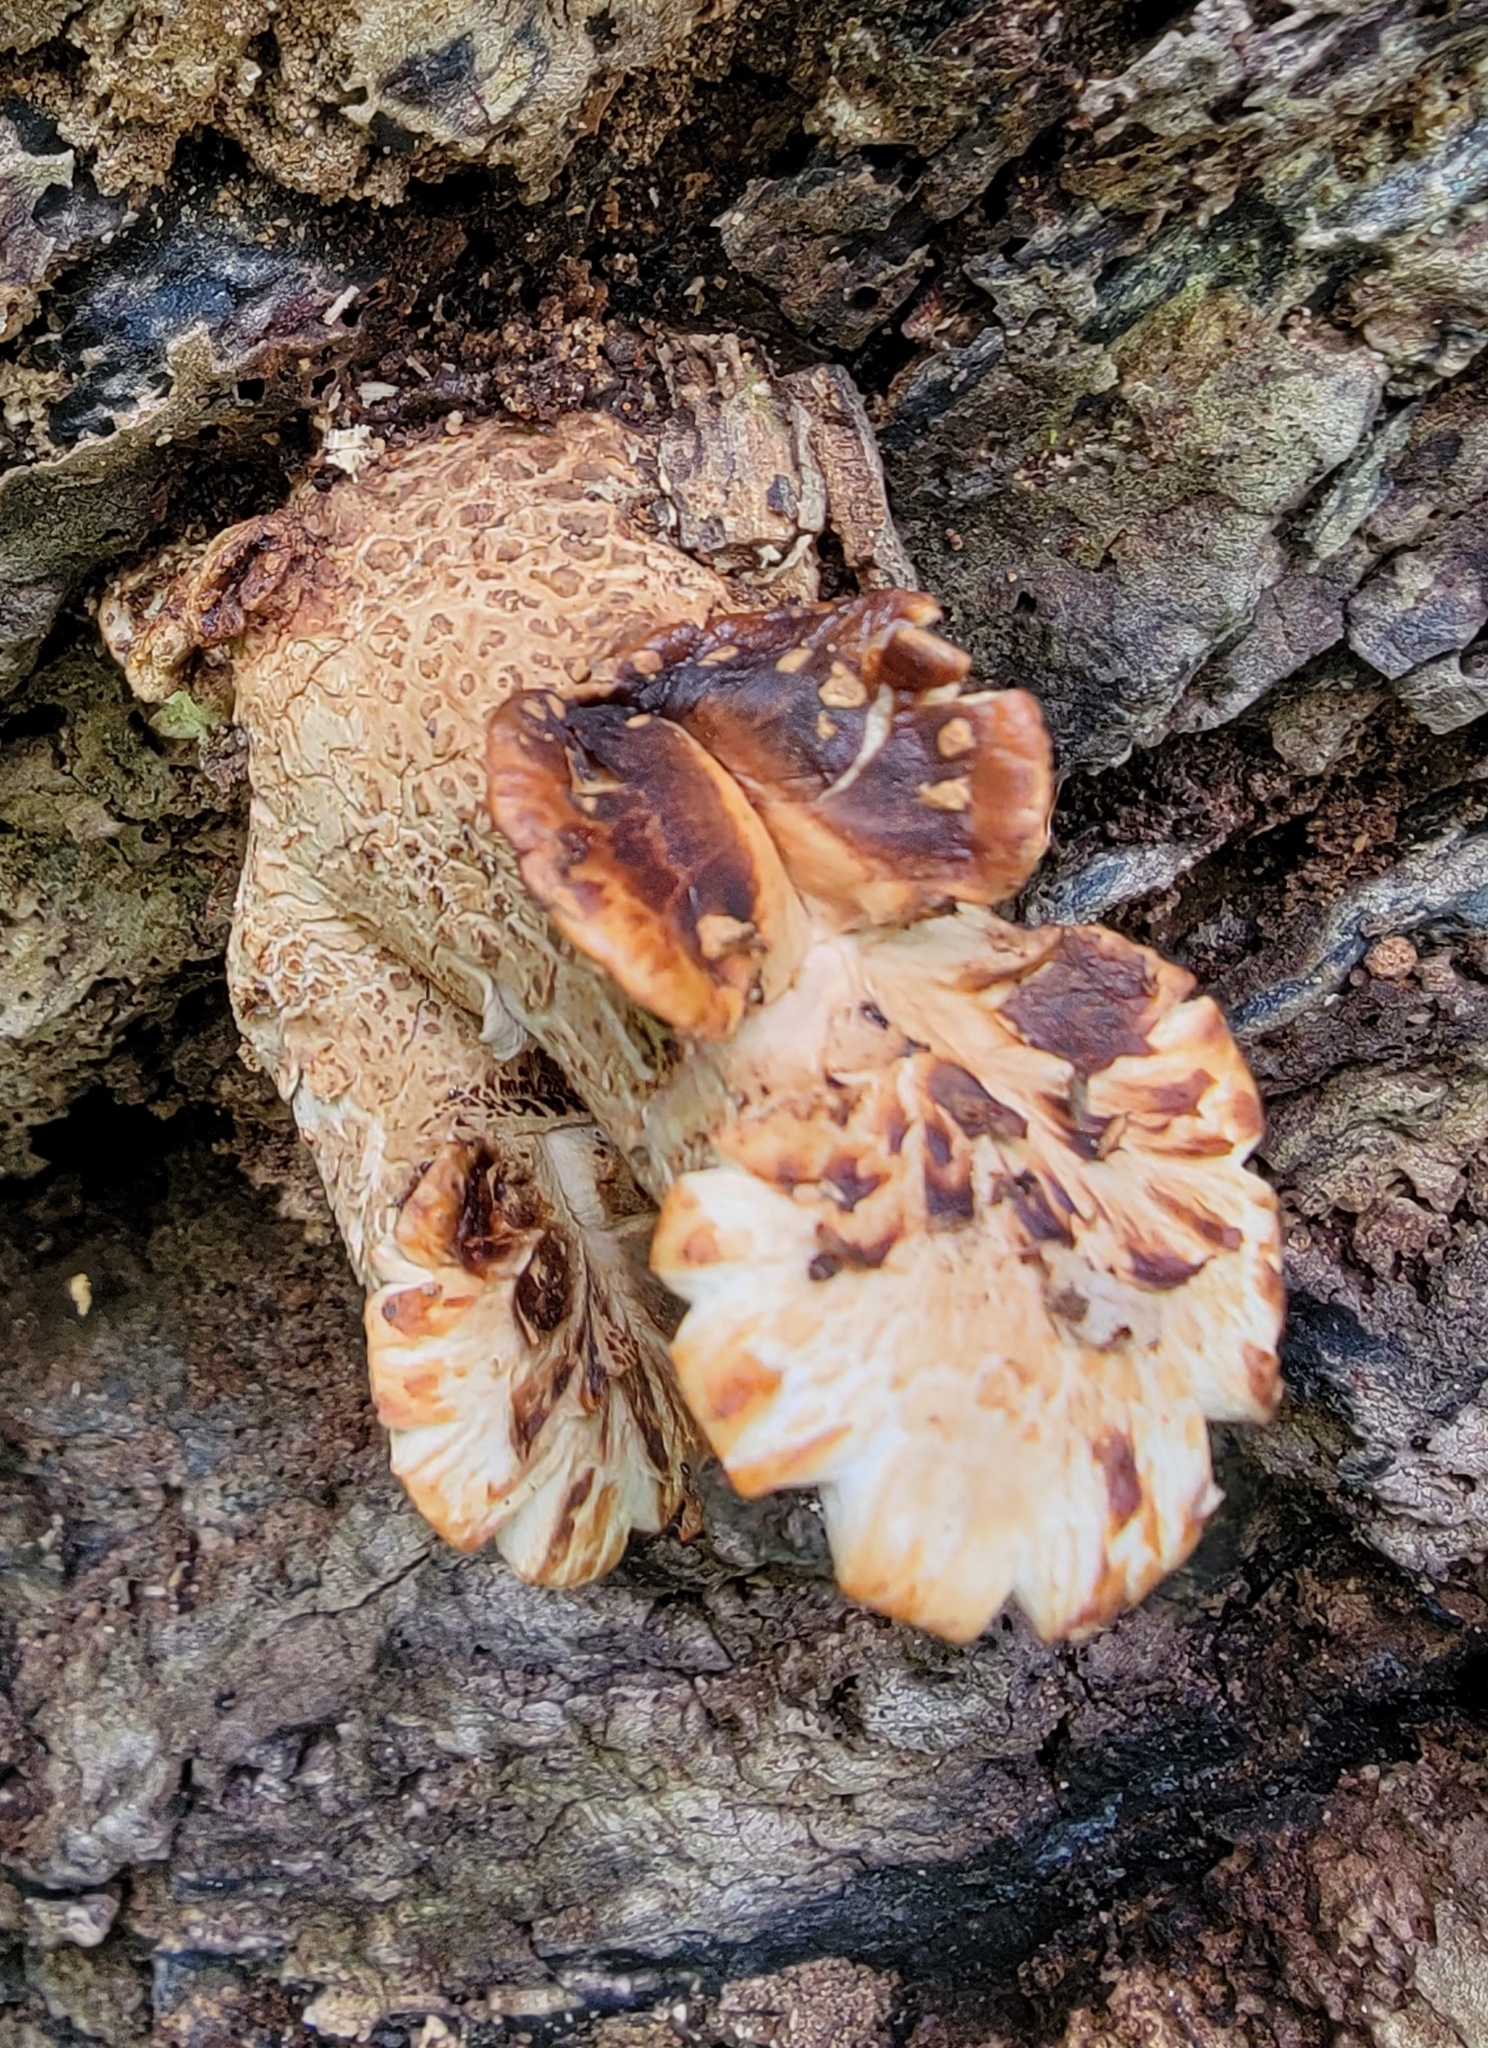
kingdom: Fungi
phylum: Basidiomycota
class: Agaricomycetes
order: Polyporales
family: Polyporaceae
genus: Cerioporus
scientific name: Cerioporus squamosus
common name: Dryad's saddle
